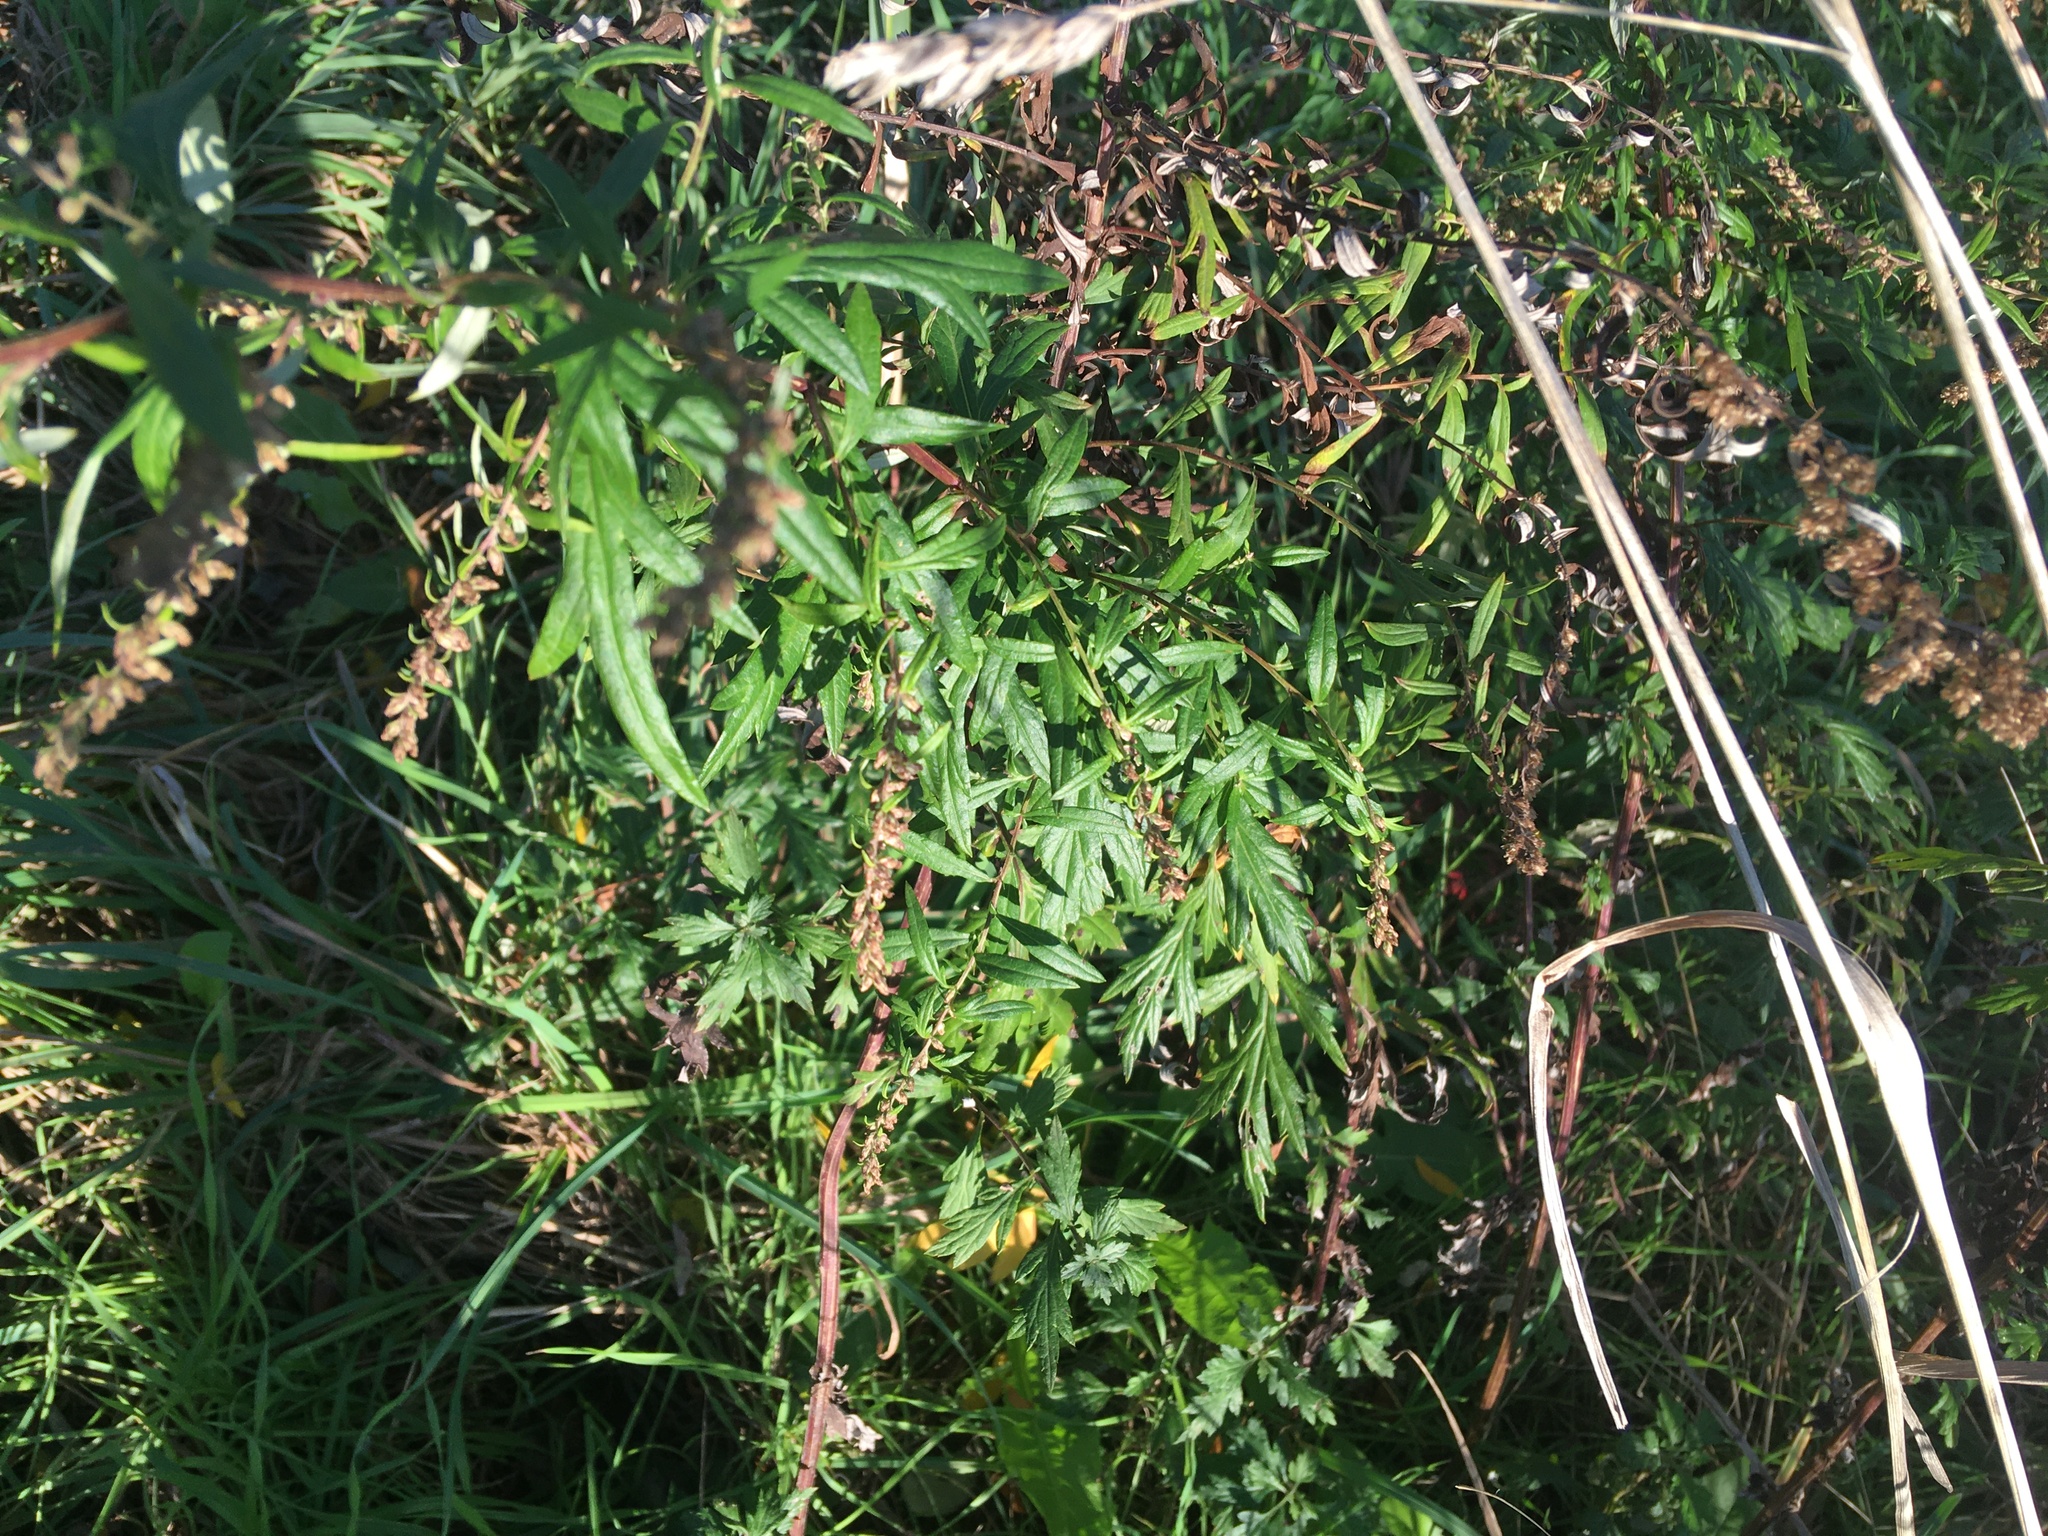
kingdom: Plantae
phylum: Tracheophyta
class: Magnoliopsida
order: Asterales
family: Asteraceae
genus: Artemisia
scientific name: Artemisia vulgaris
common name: Mugwort
